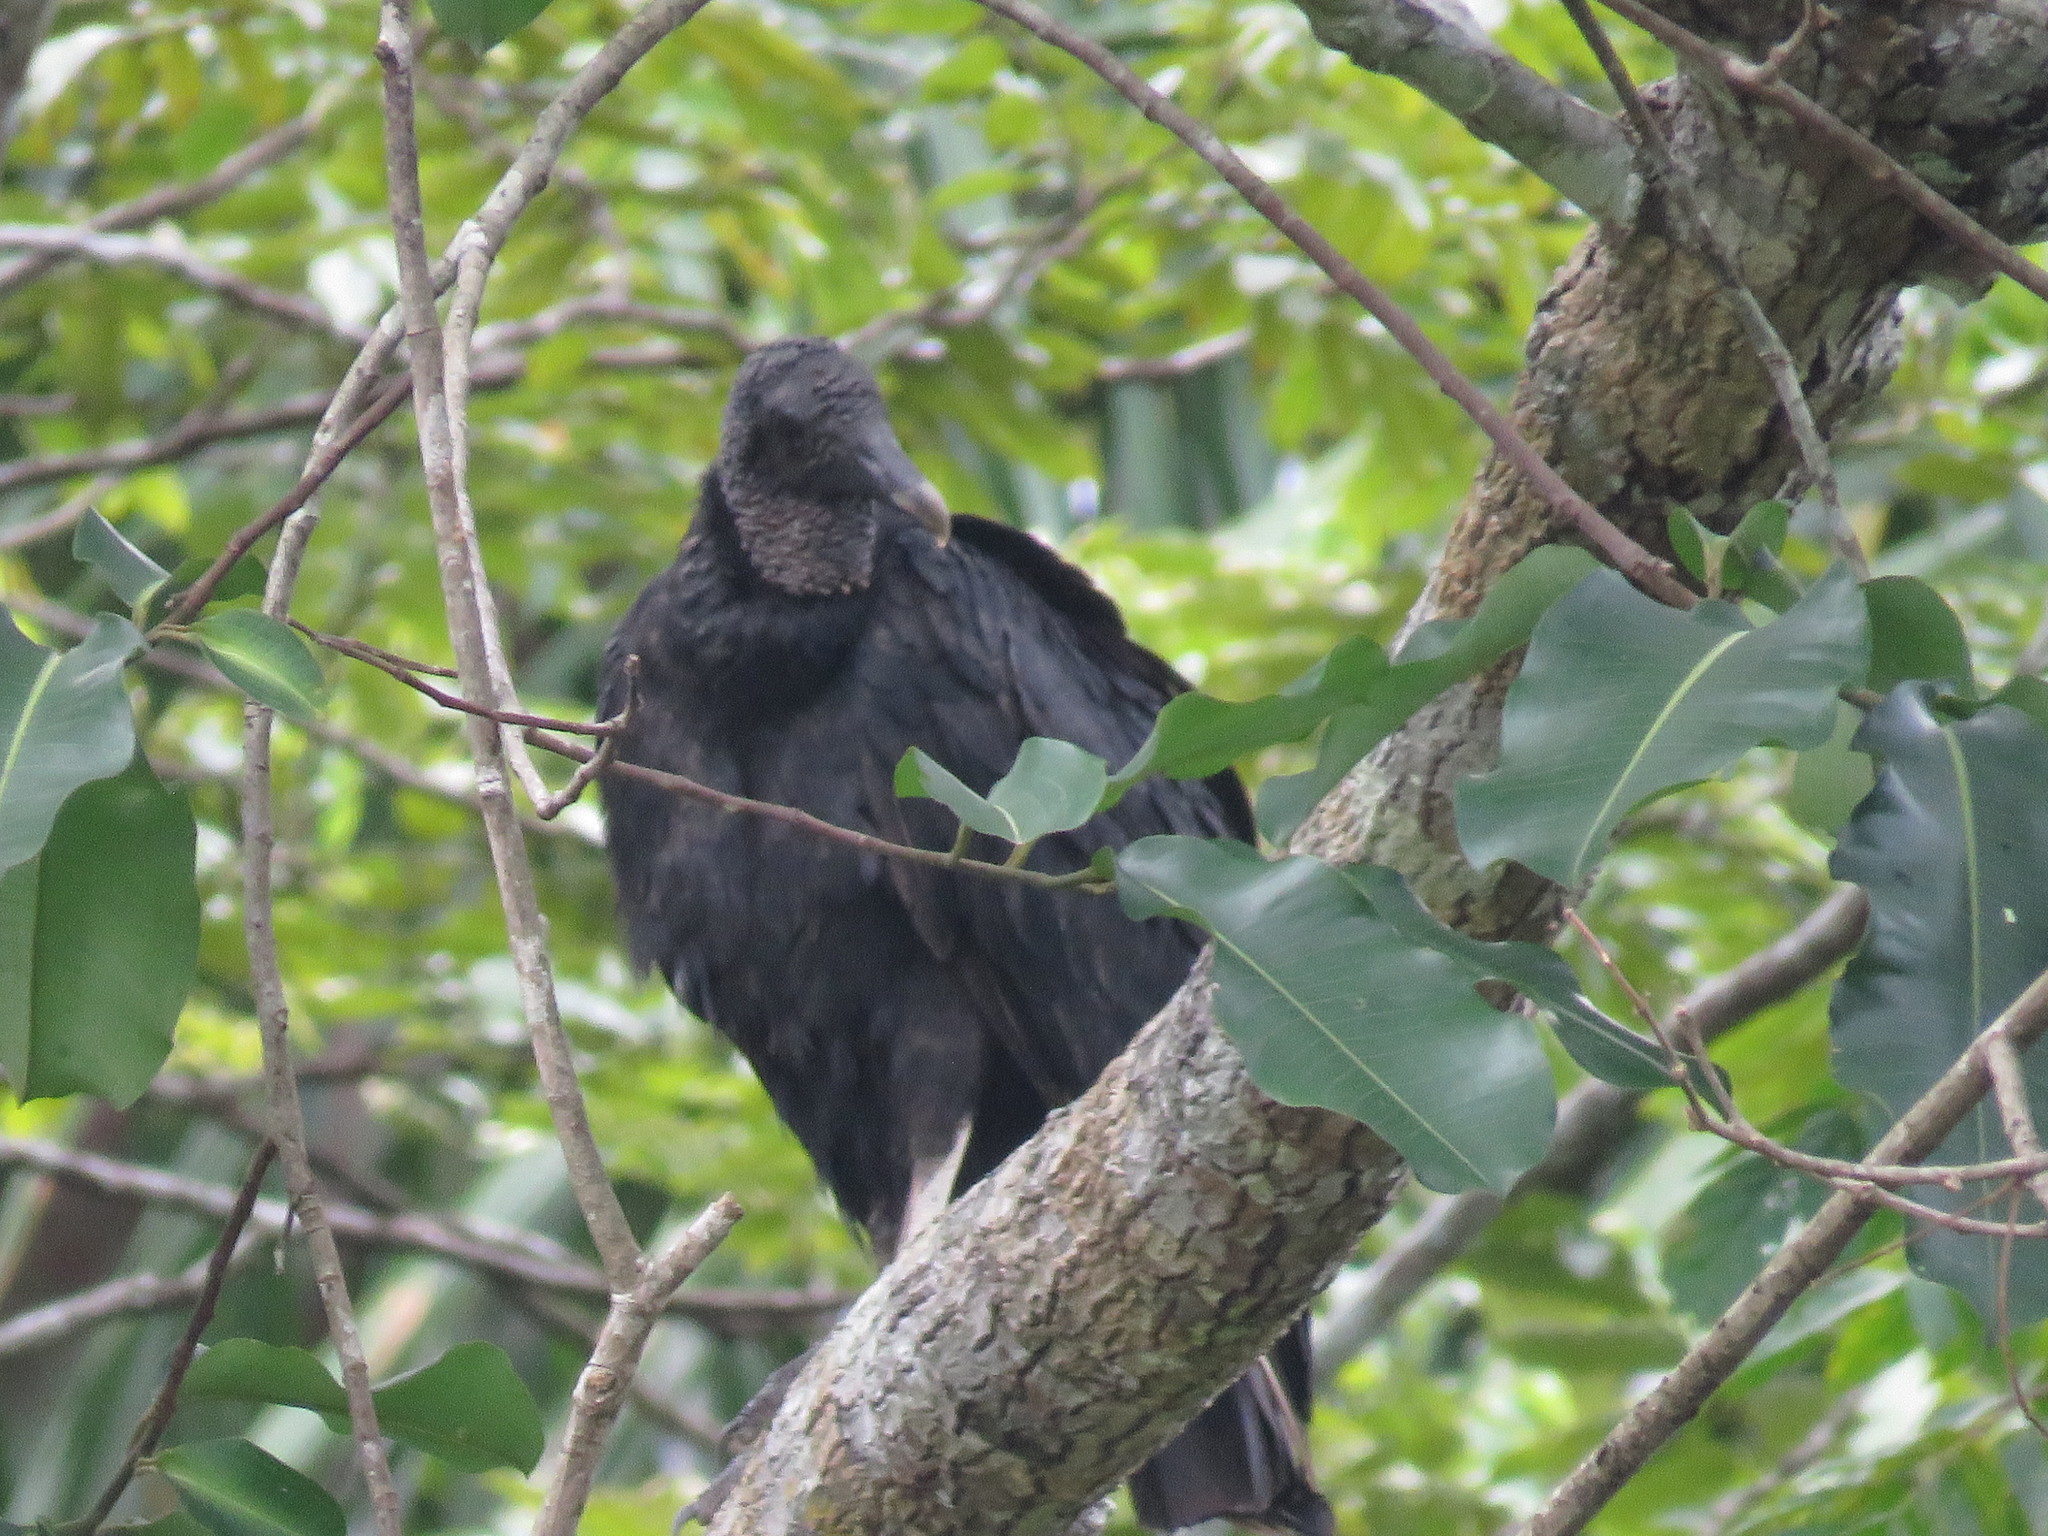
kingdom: Animalia
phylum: Chordata
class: Aves
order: Accipitriformes
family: Cathartidae
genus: Coragyps
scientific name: Coragyps atratus
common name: Black vulture
